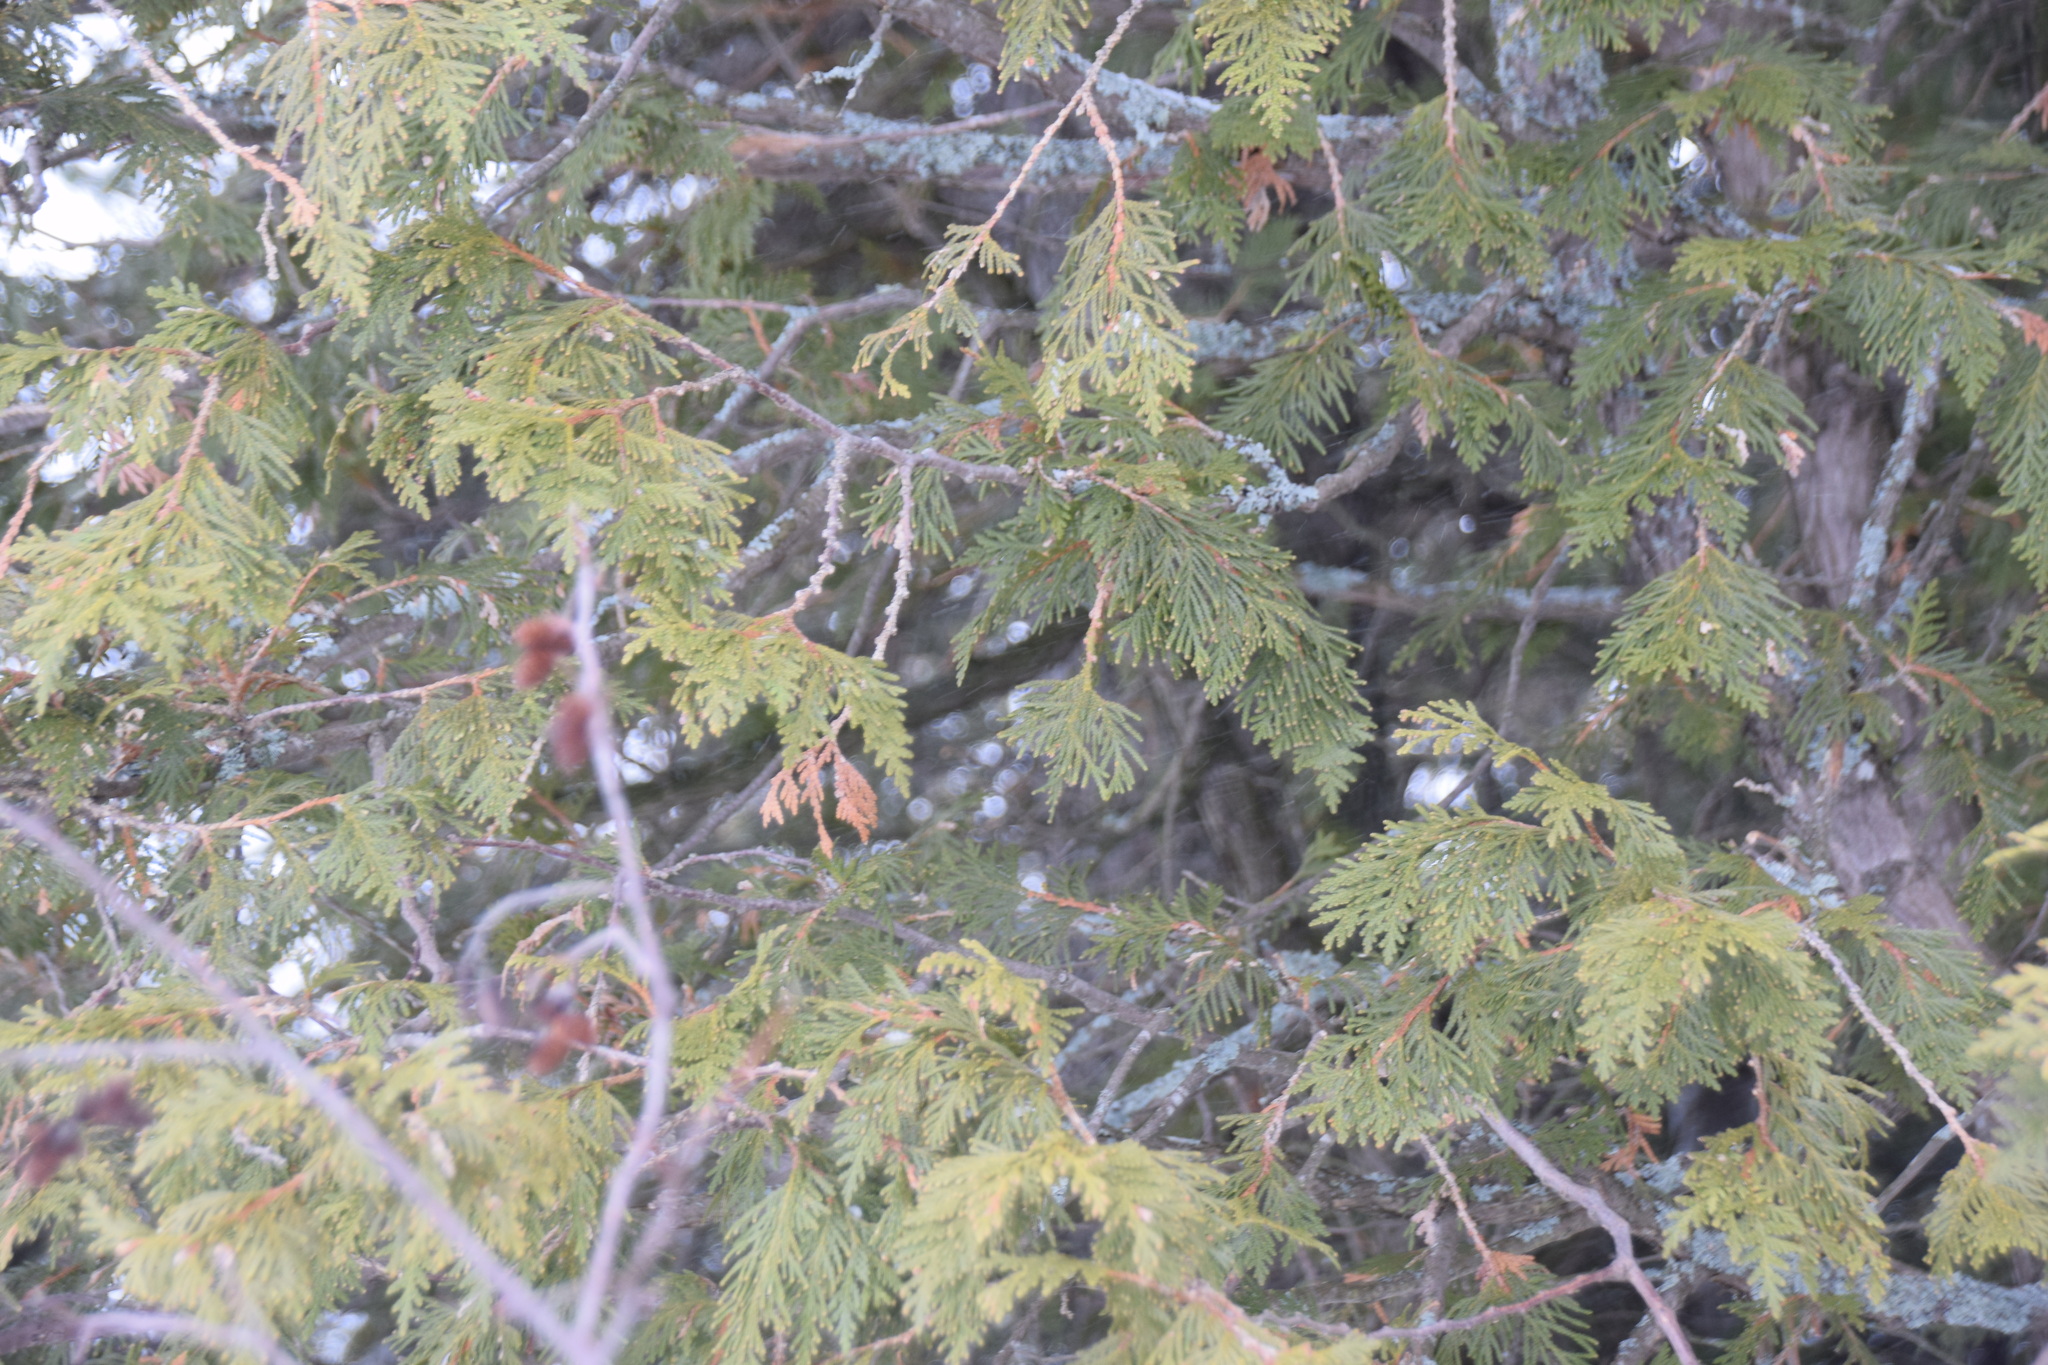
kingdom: Plantae
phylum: Tracheophyta
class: Pinopsida
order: Pinales
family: Cupressaceae
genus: Thuja
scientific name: Thuja occidentalis
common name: Northern white-cedar
